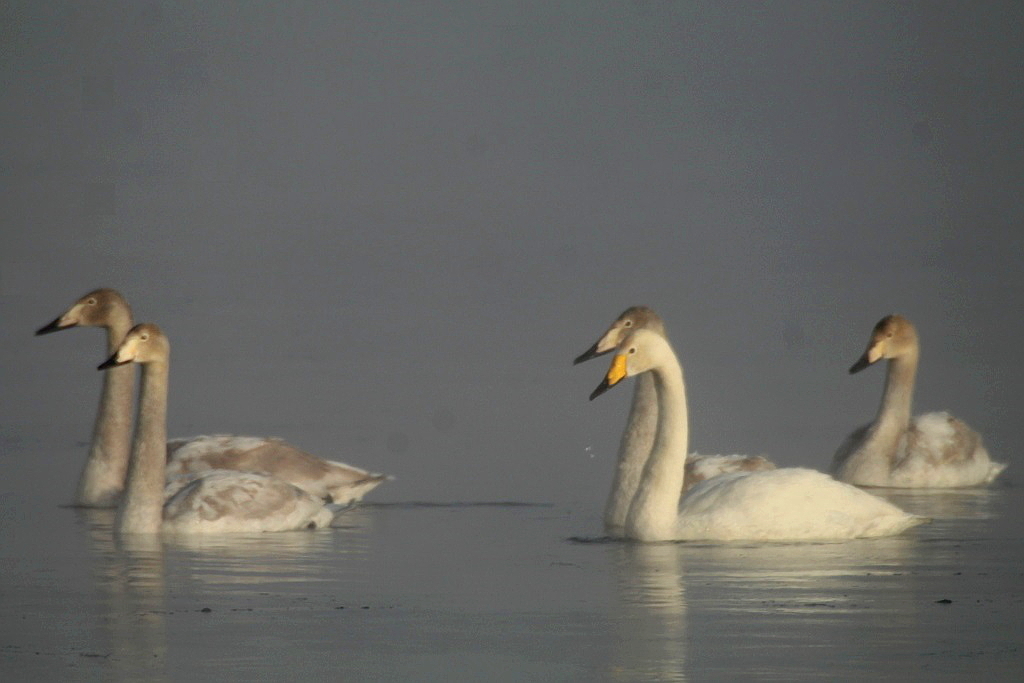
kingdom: Animalia
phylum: Chordata
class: Aves
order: Anseriformes
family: Anatidae
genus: Cygnus
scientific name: Cygnus cygnus
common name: Whooper swan
